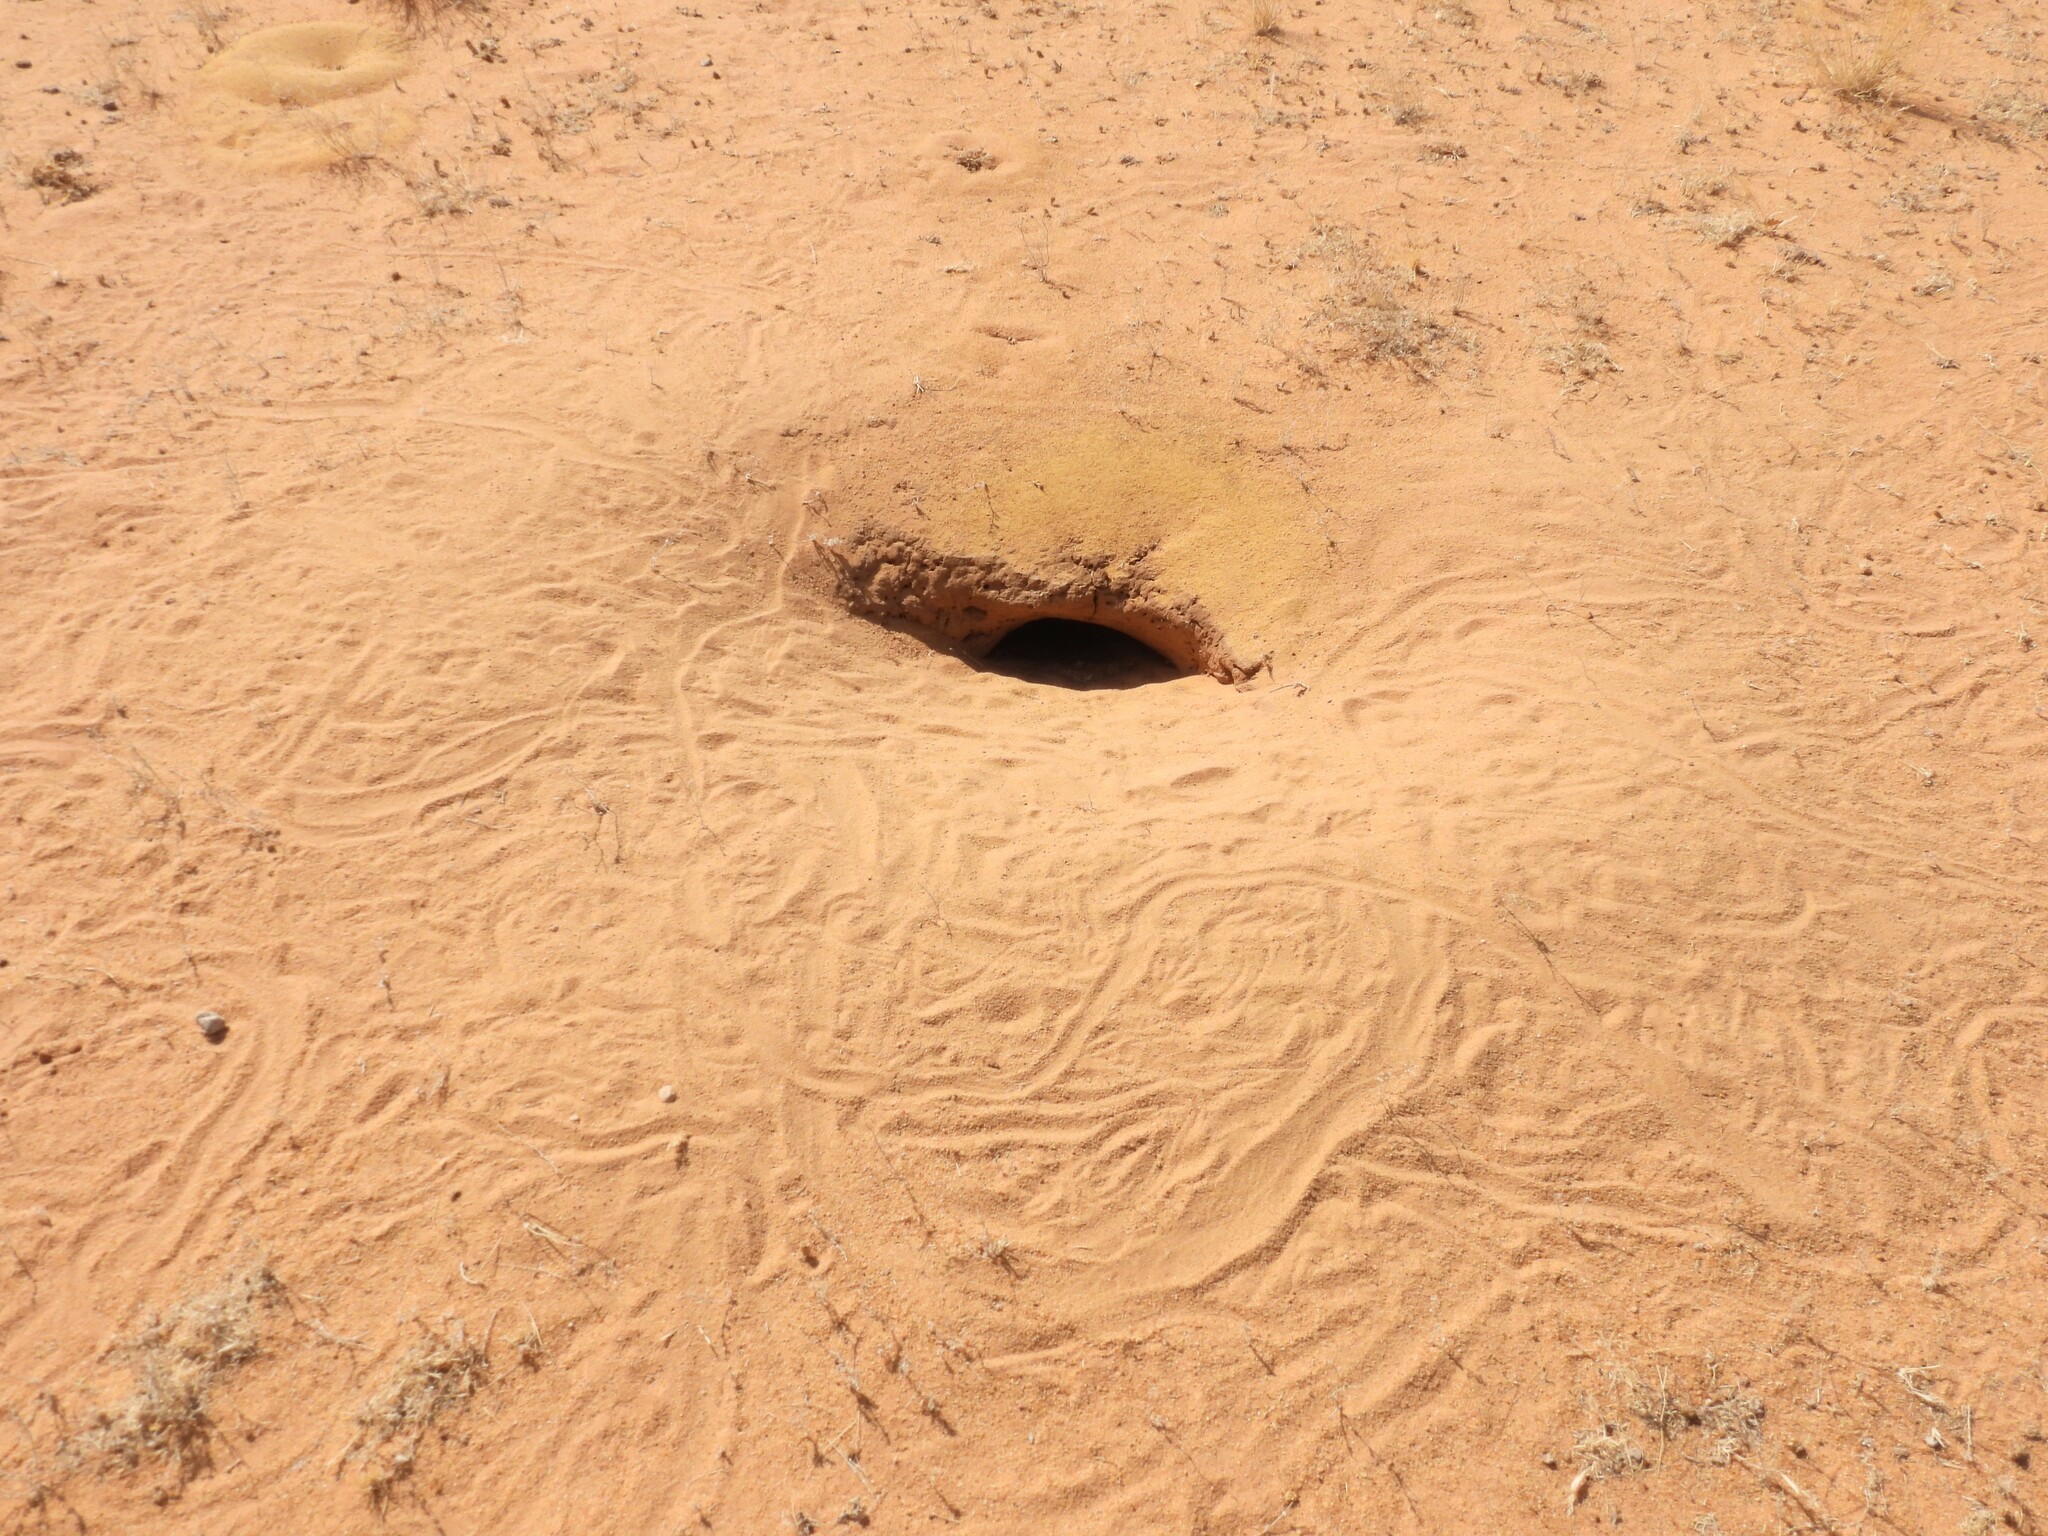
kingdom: Animalia
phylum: Chordata
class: Squamata
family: Agamidae
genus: Uromastyx
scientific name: Uromastyx aegyptia
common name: Egyptian mastigure
